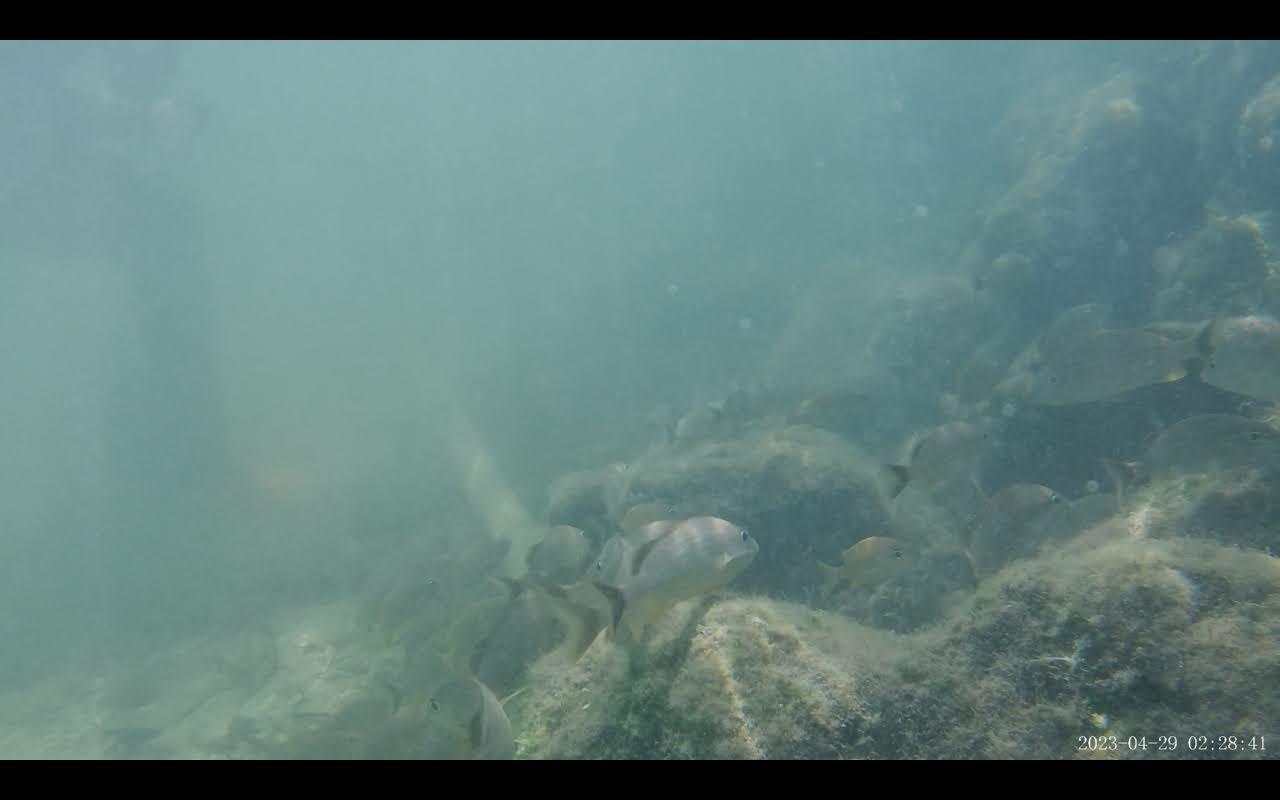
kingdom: Animalia
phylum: Chordata
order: Perciformes
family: Haemulidae
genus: Haemulon
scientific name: Haemulon sciurus
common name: Bluestriped grunt
